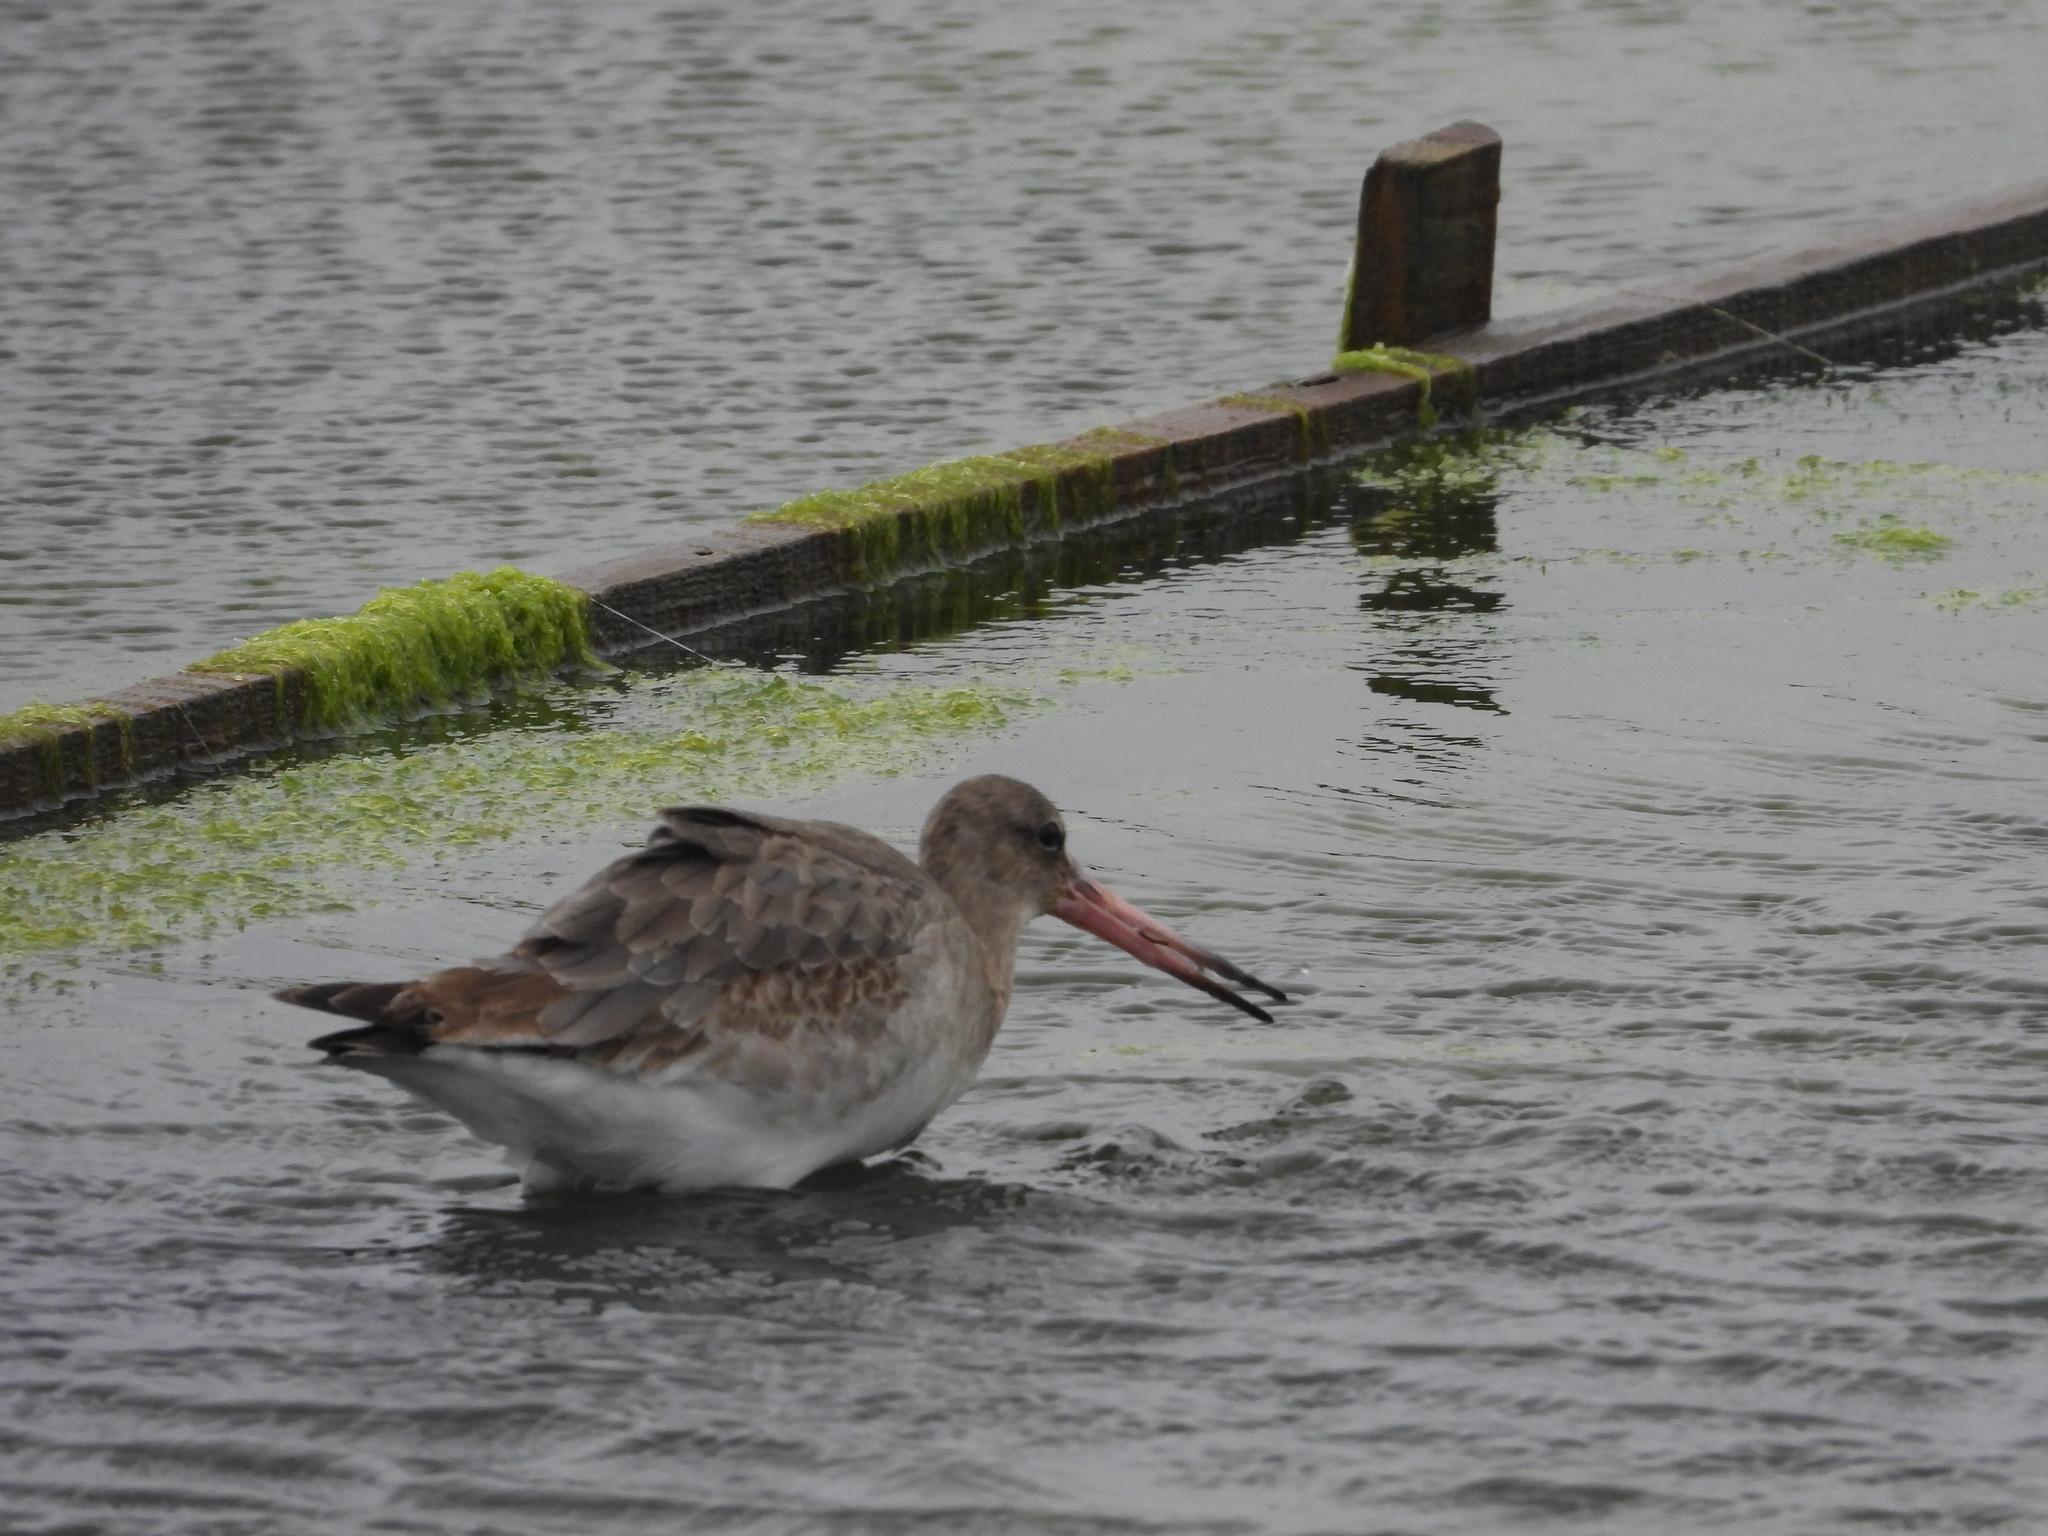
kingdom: Animalia
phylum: Chordata
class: Aves
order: Charadriiformes
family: Scolopacidae
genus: Limosa
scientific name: Limosa limosa
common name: Black-tailed godwit
